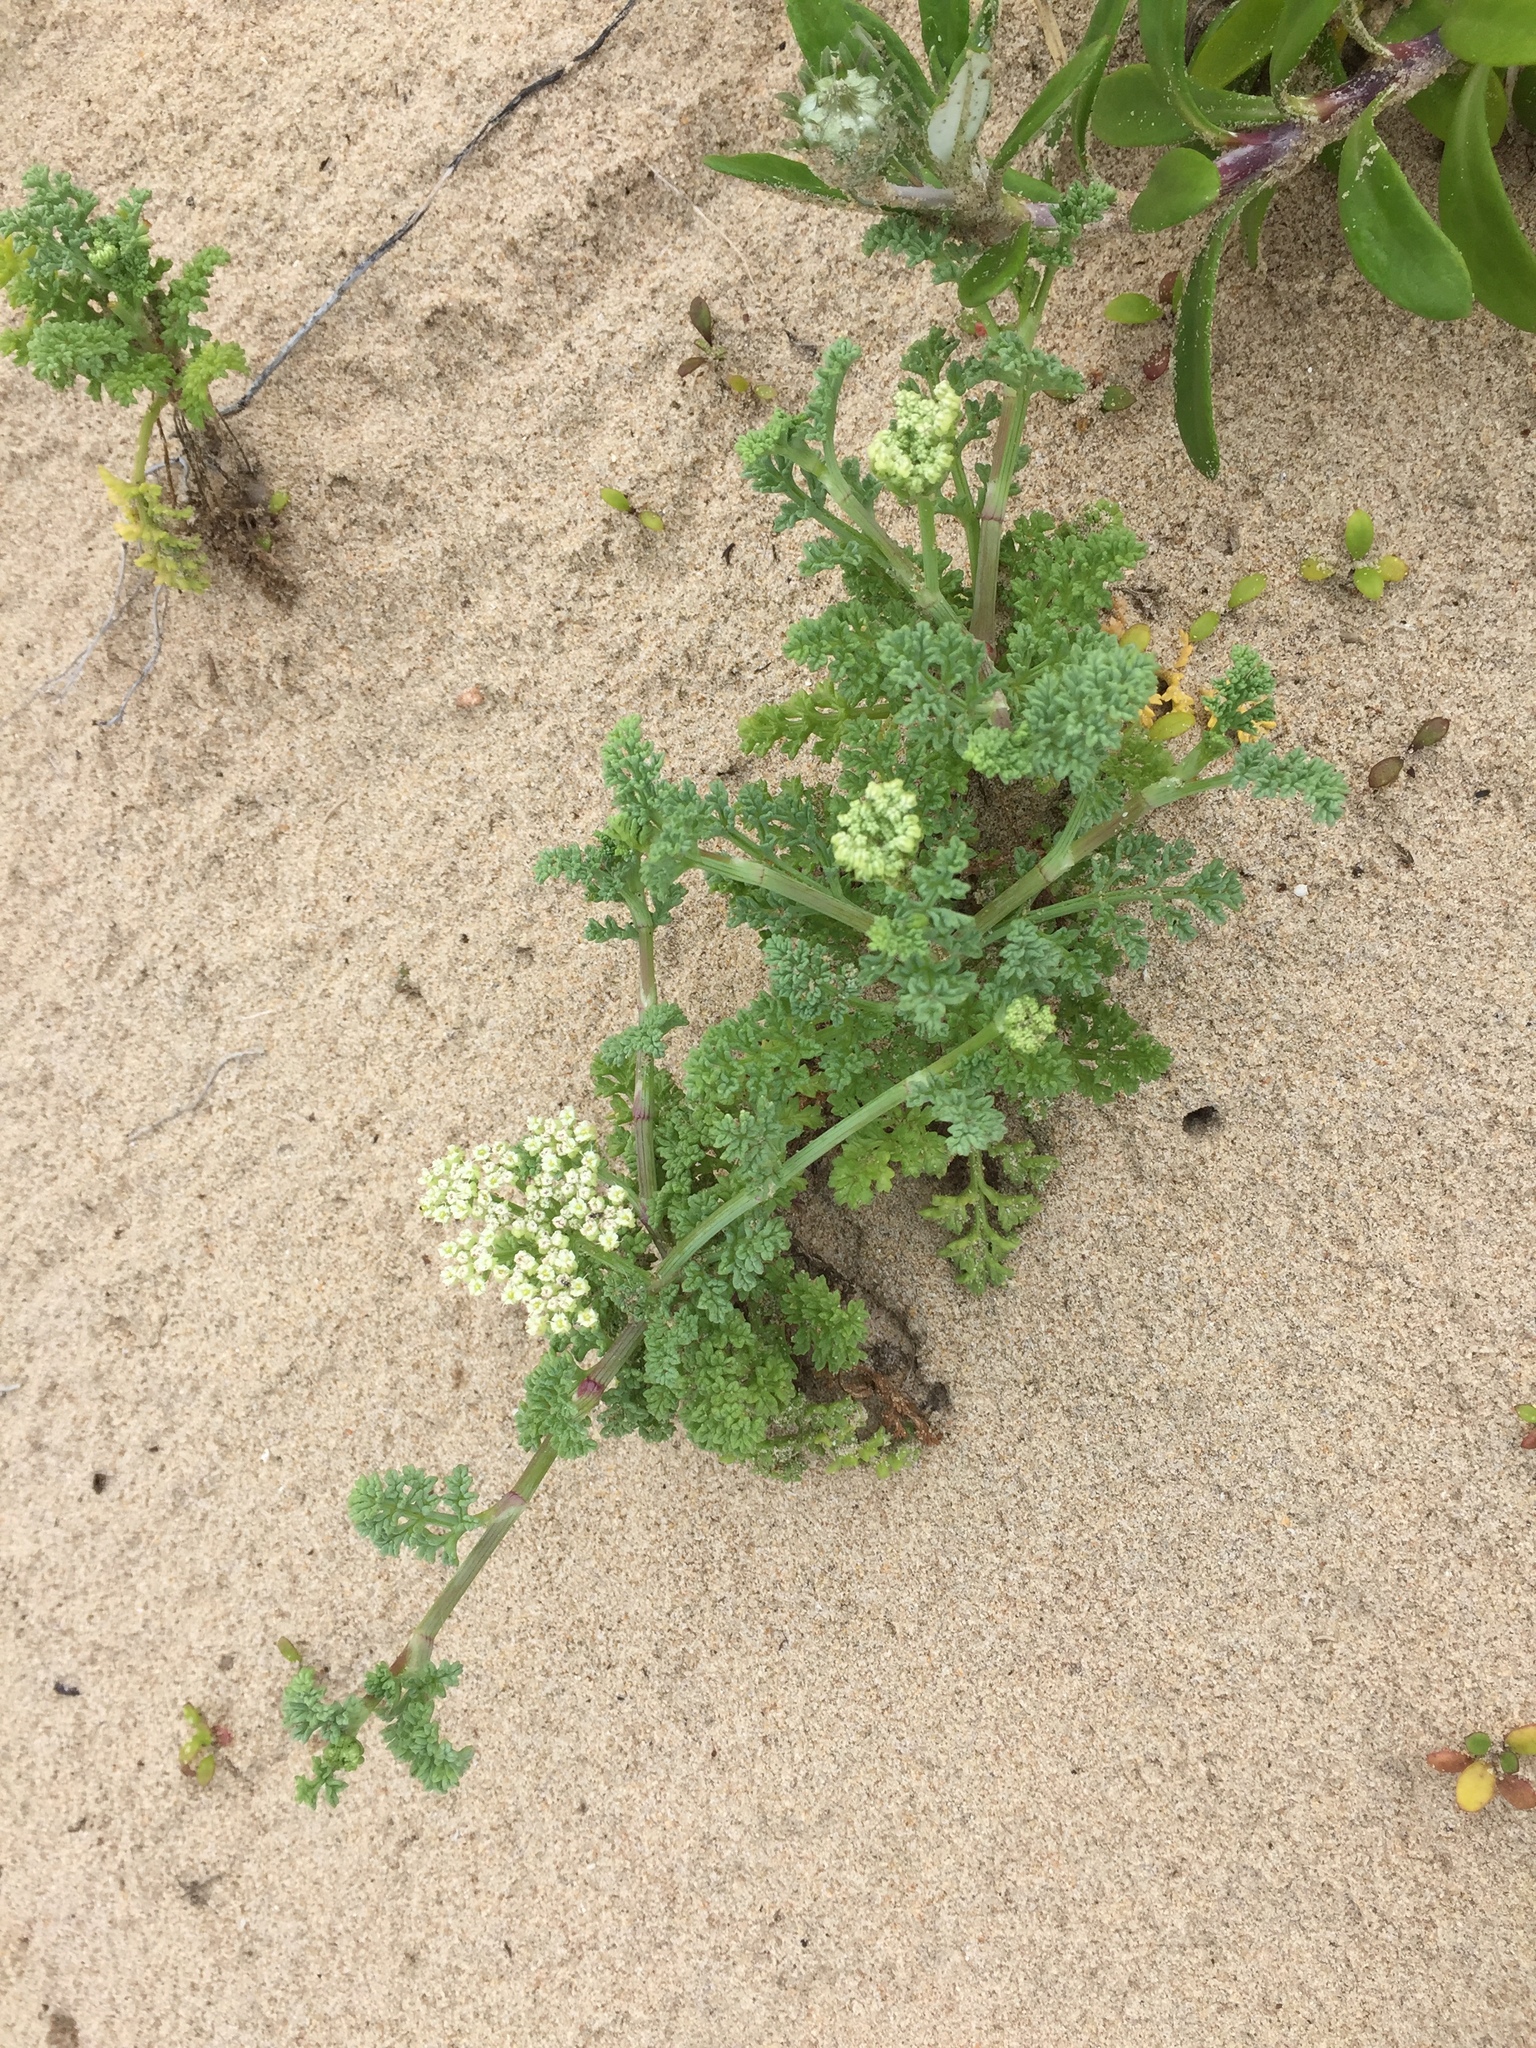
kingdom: Plantae
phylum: Tracheophyta
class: Magnoliopsida
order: Apiales
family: Apiaceae
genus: Dasispermum
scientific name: Dasispermum suffruticosum
